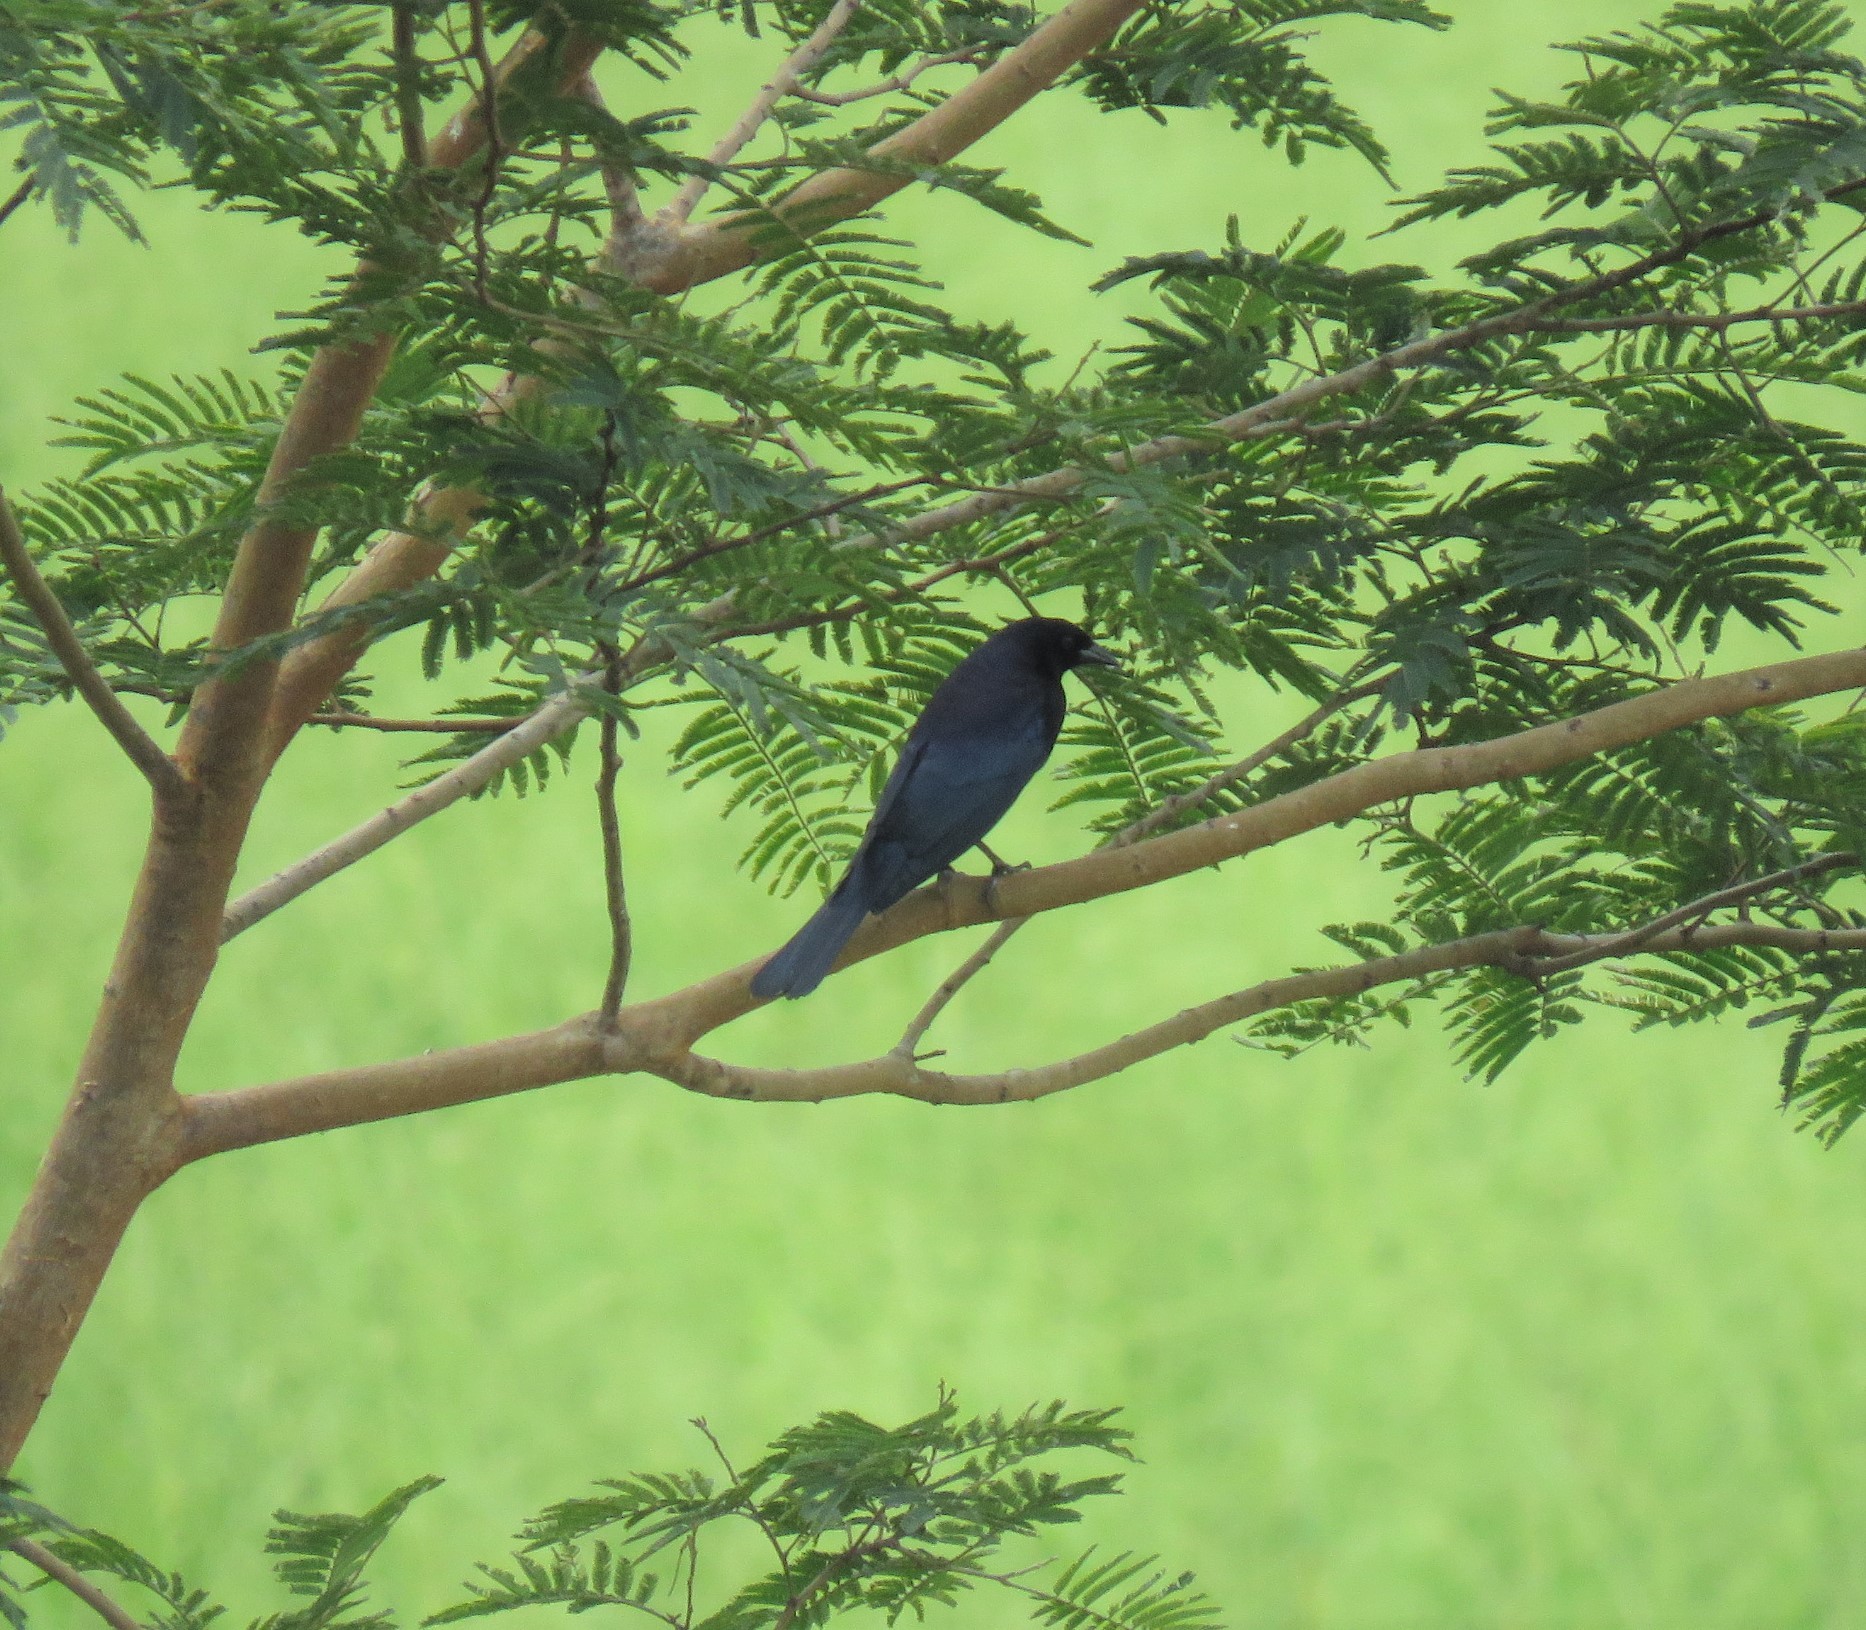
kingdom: Animalia
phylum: Chordata
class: Aves
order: Passeriformes
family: Icteridae
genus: Molothrus
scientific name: Molothrus bonariensis
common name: Shiny cowbird
